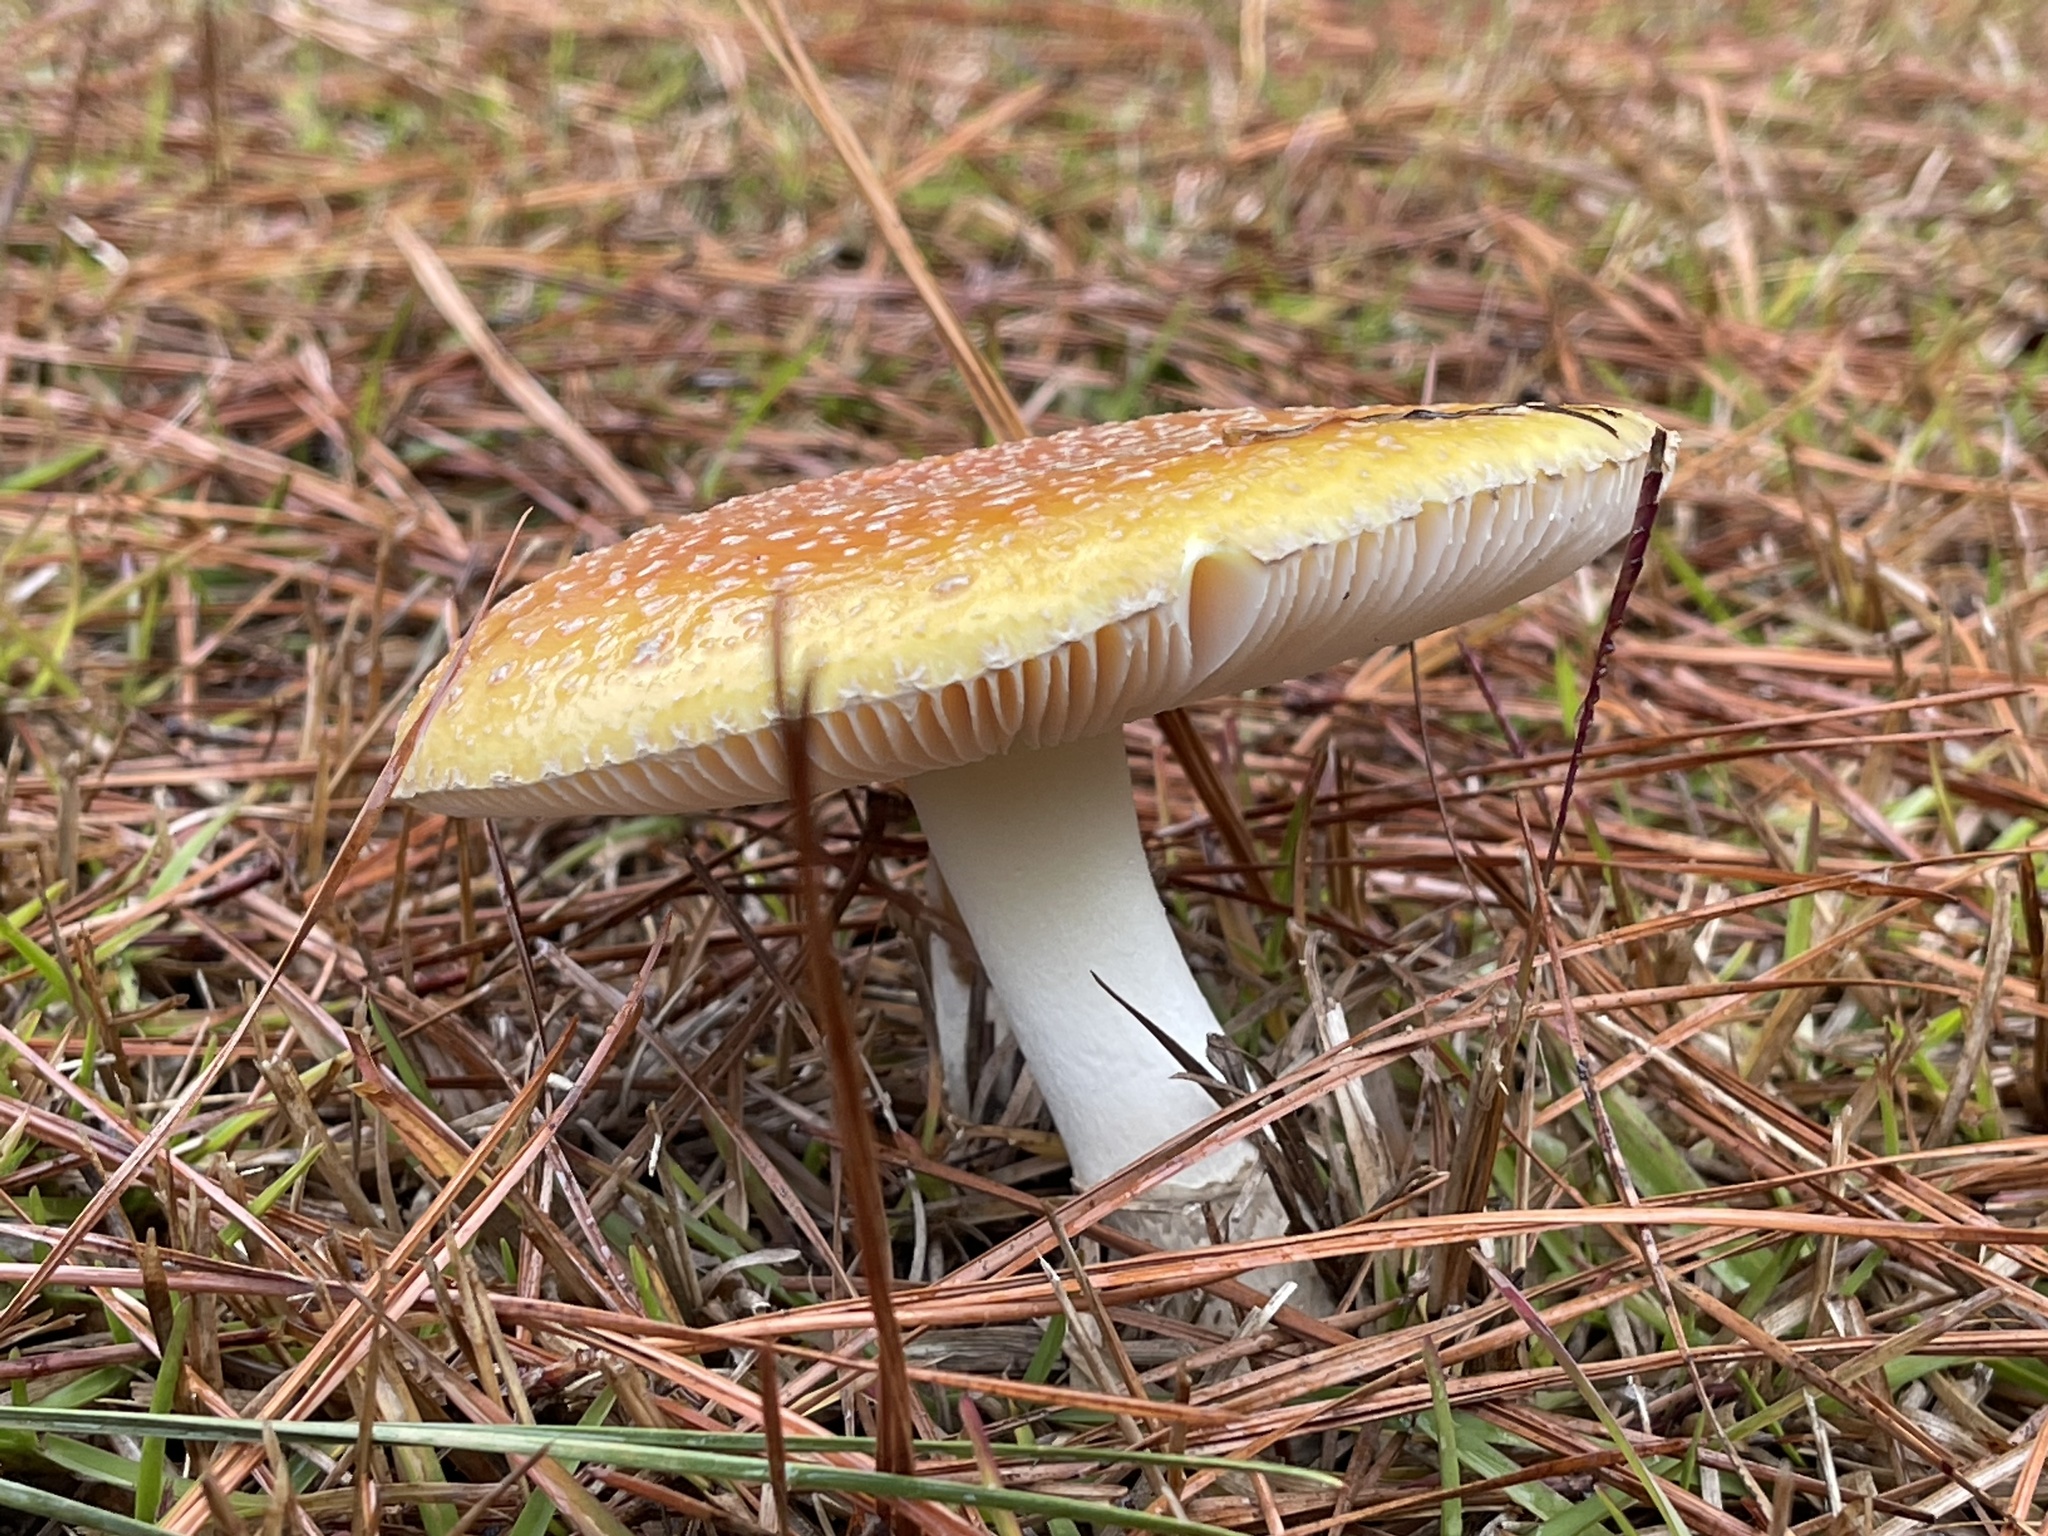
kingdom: Fungi
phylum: Basidiomycota
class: Agaricomycetes
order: Agaricales
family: Amanitaceae
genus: Amanita
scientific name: Amanita persicina
